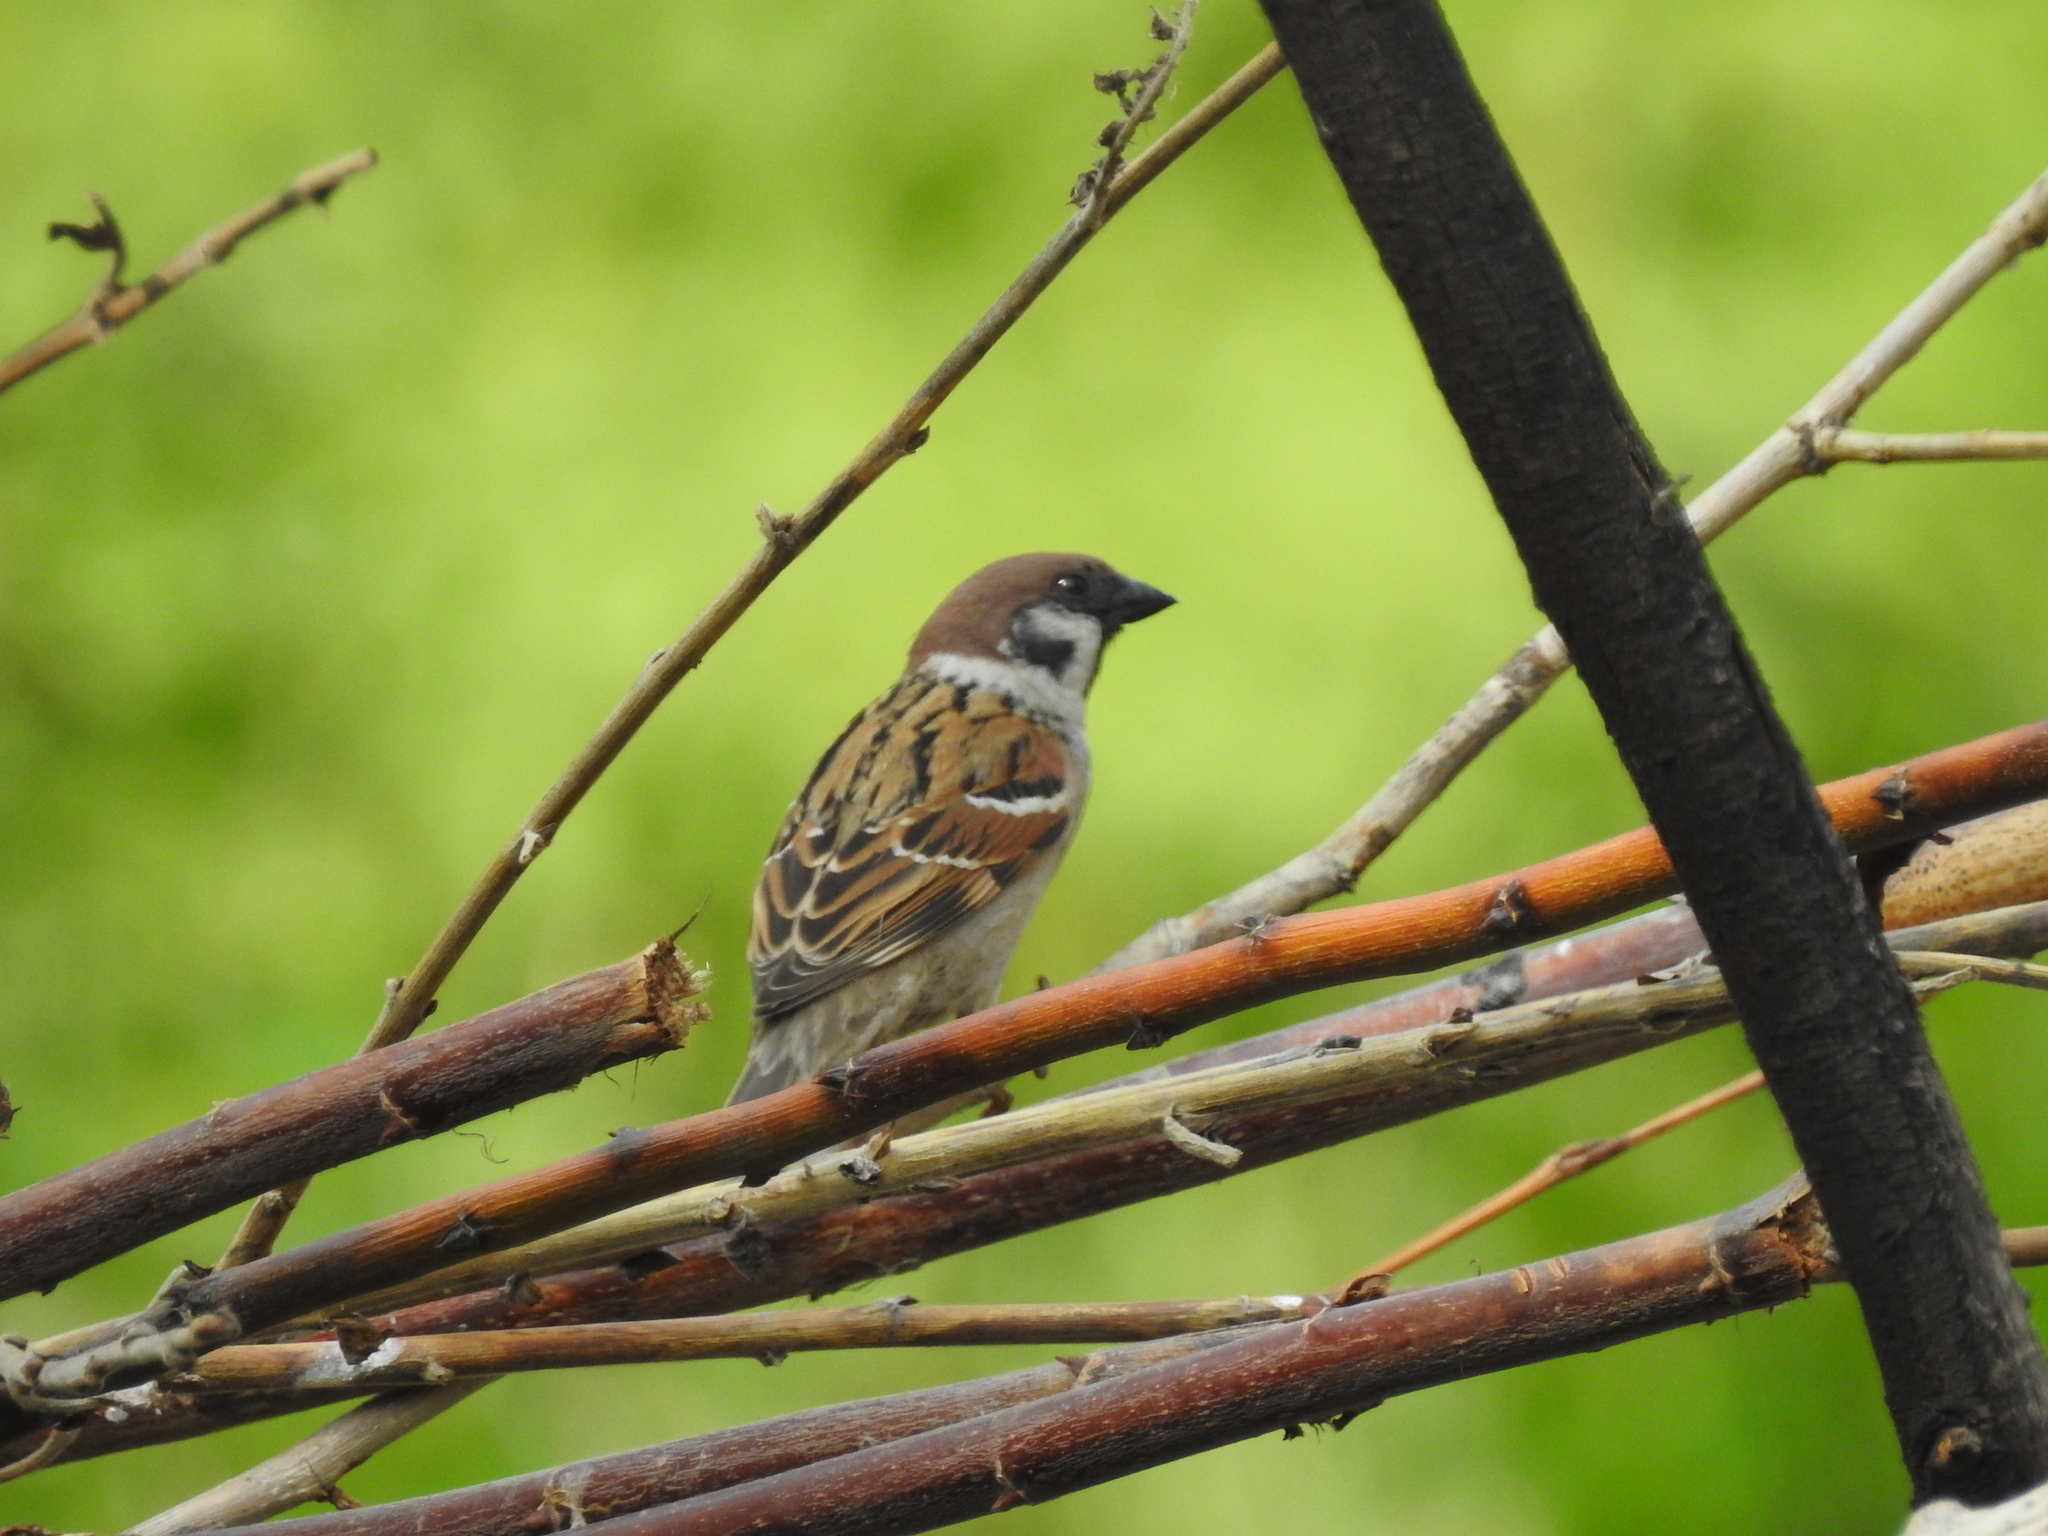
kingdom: Animalia
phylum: Chordata
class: Aves
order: Passeriformes
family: Passeridae
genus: Passer
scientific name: Passer montanus
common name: Eurasian tree sparrow
